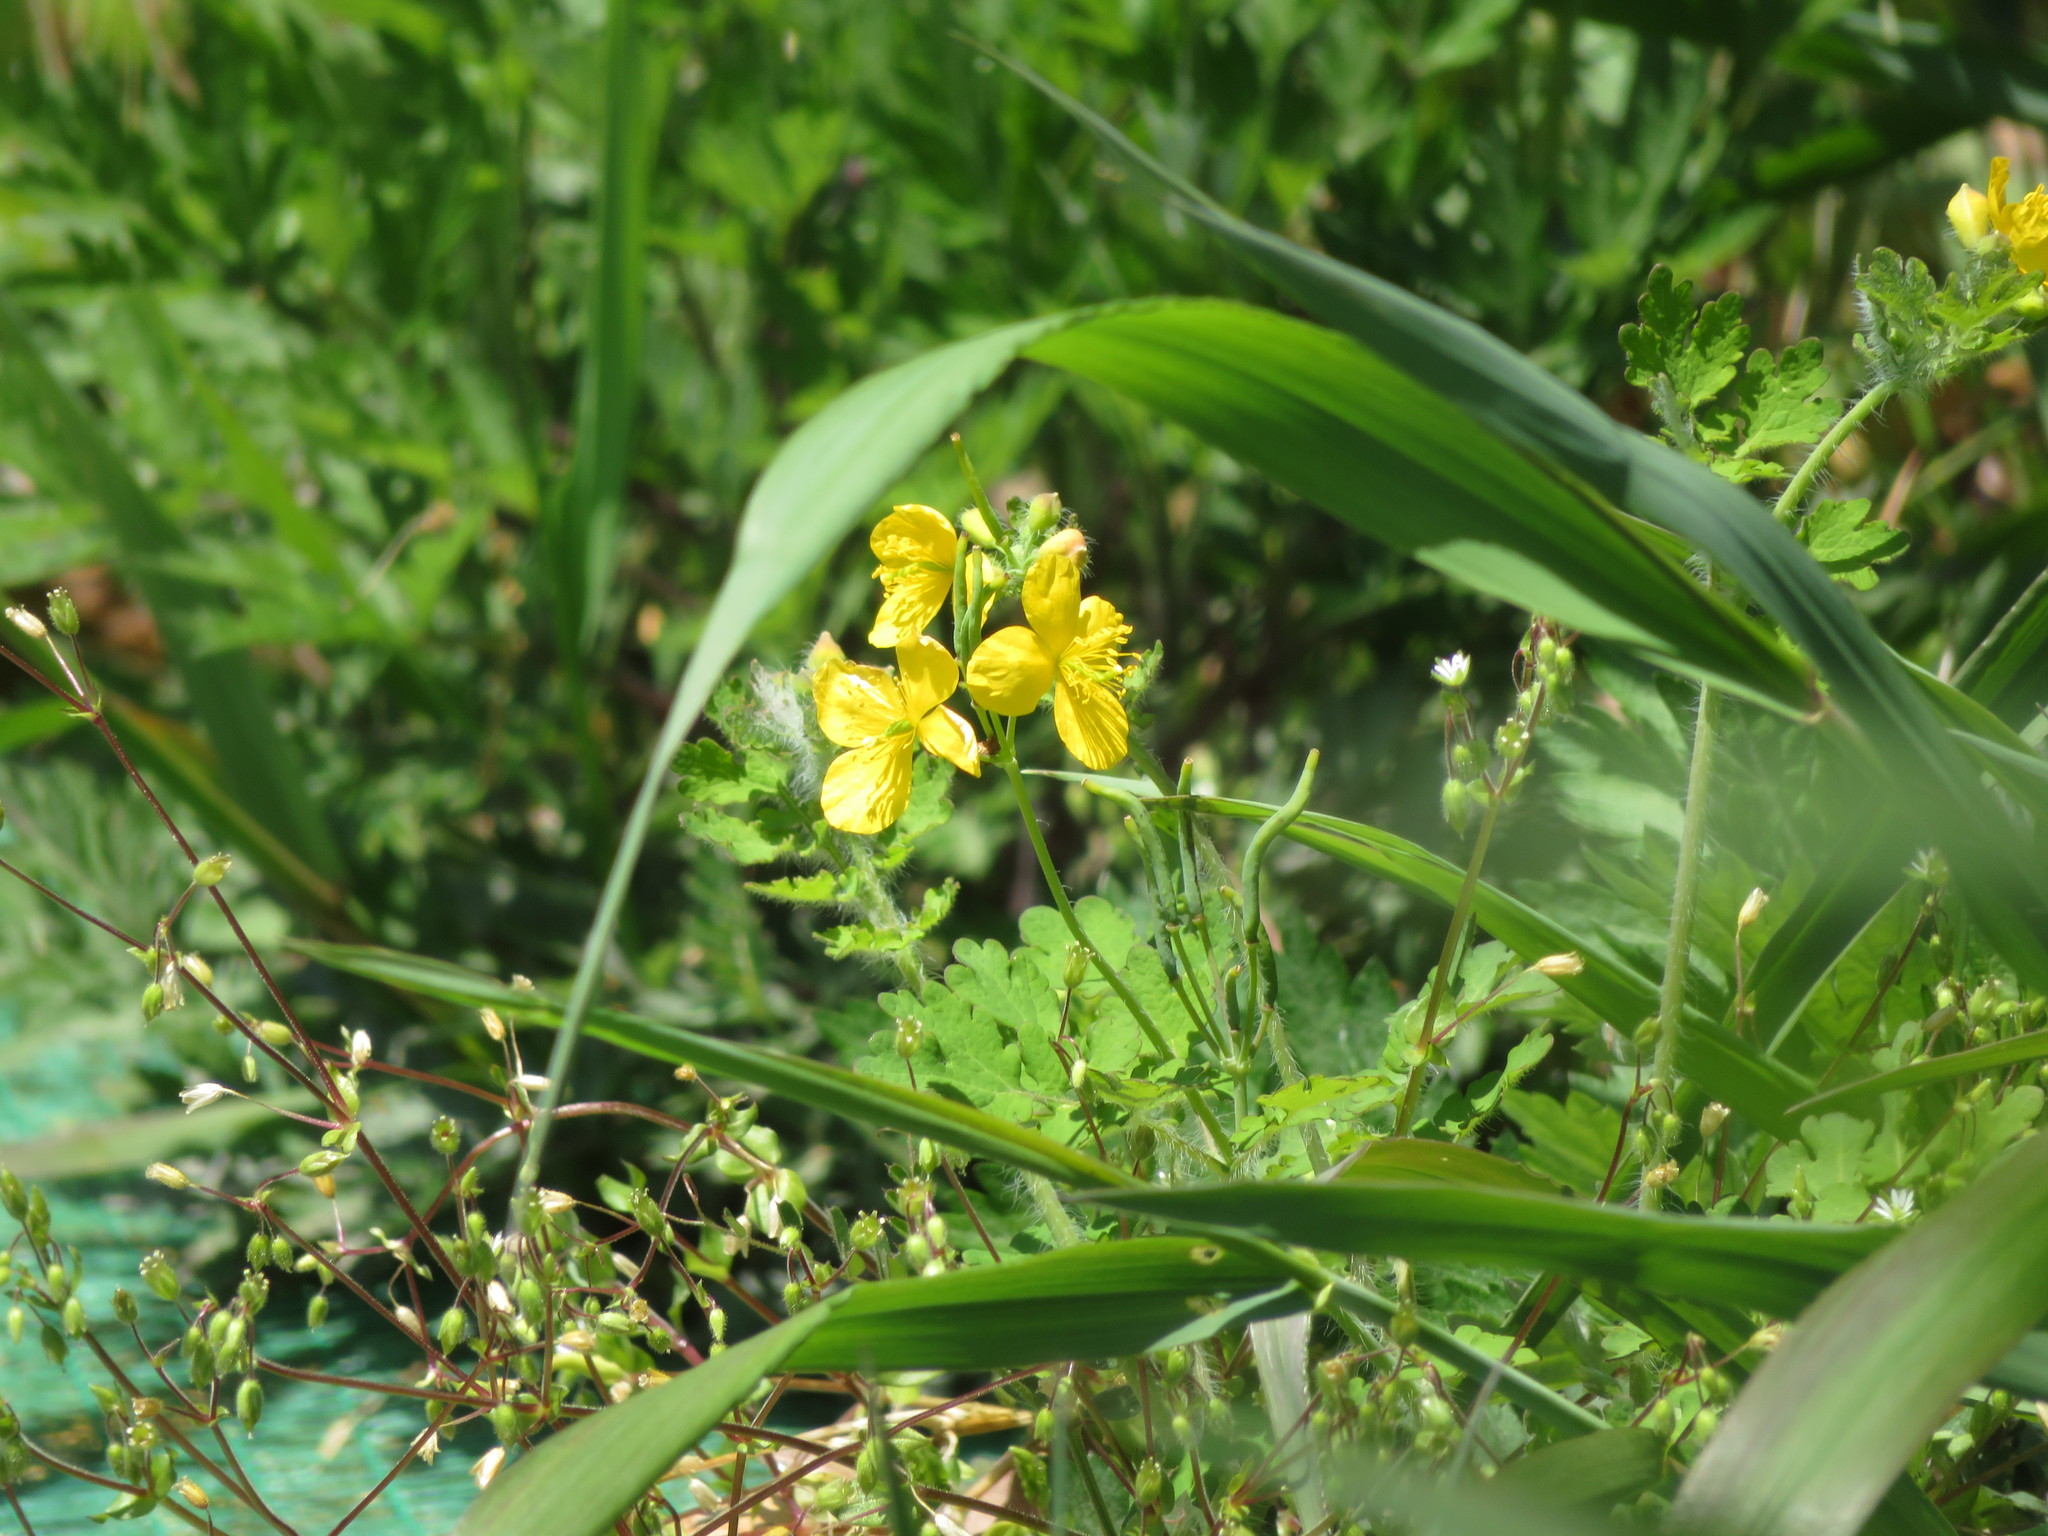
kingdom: Plantae
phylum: Tracheophyta
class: Magnoliopsida
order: Ranunculales
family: Papaveraceae
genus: Chelidonium
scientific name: Chelidonium majus
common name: Greater celandine
